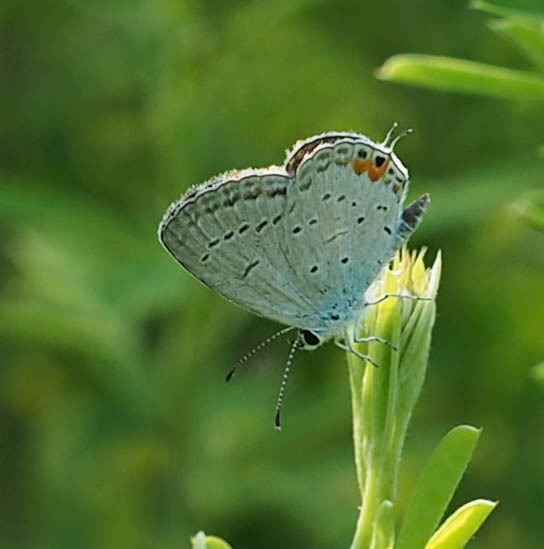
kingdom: Animalia
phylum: Arthropoda
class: Insecta
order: Lepidoptera
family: Lycaenidae
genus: Elkalyce
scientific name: Elkalyce comyntas
